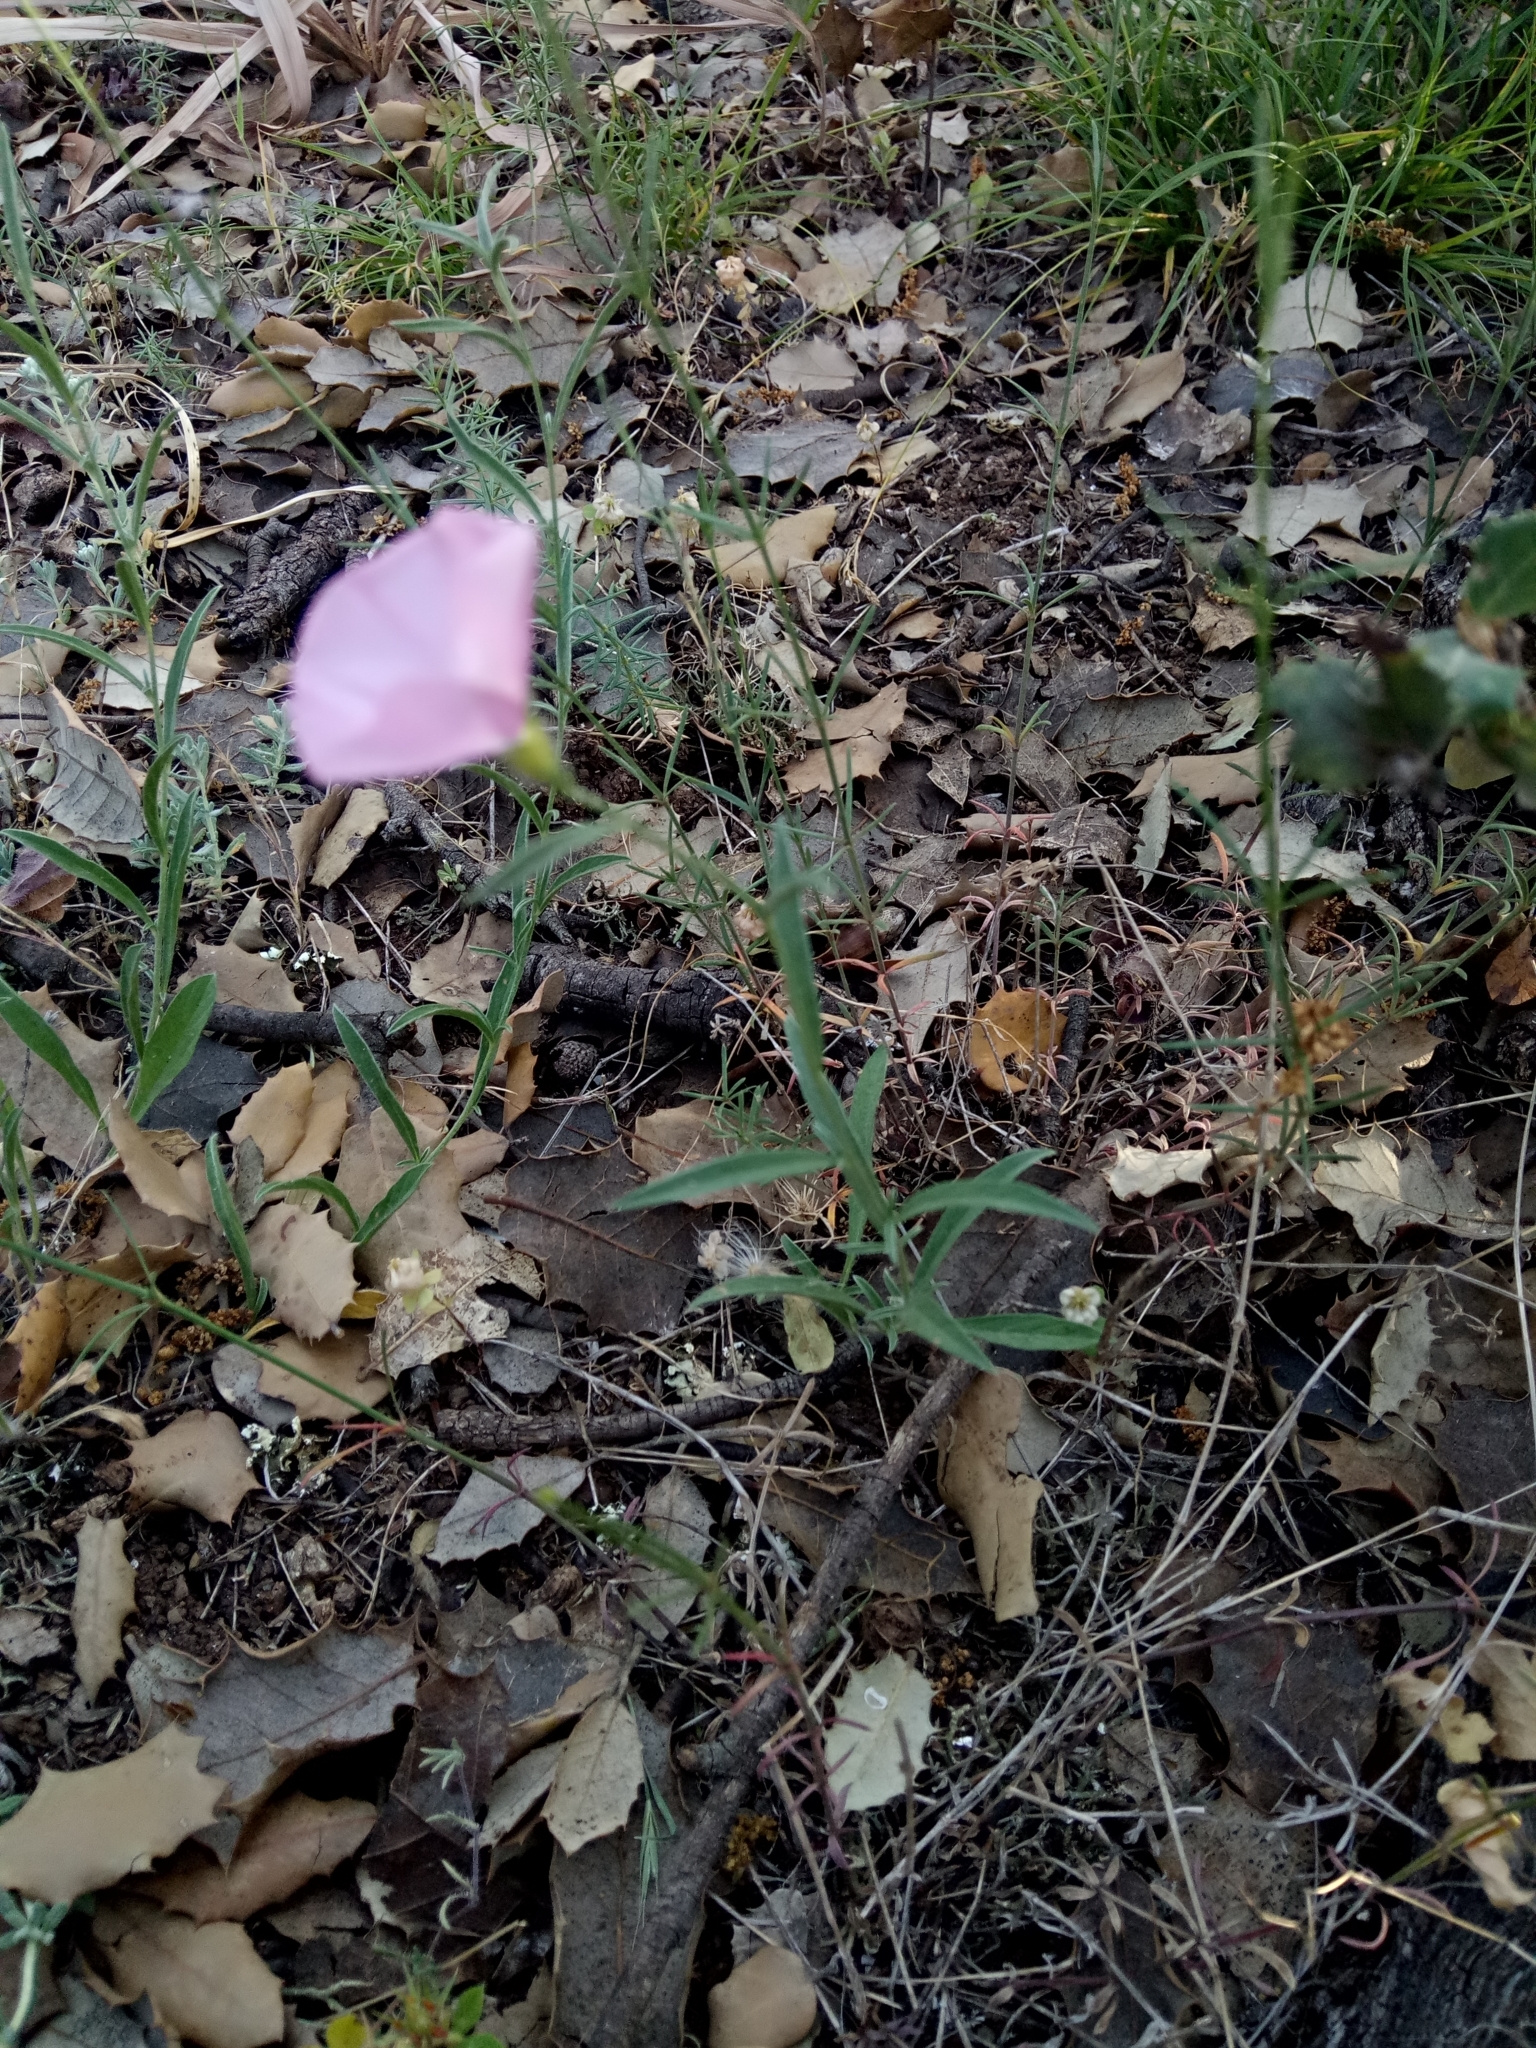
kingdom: Plantae
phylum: Tracheophyta
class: Magnoliopsida
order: Solanales
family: Convolvulaceae
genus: Convolvulus
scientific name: Convolvulus cantabrica
